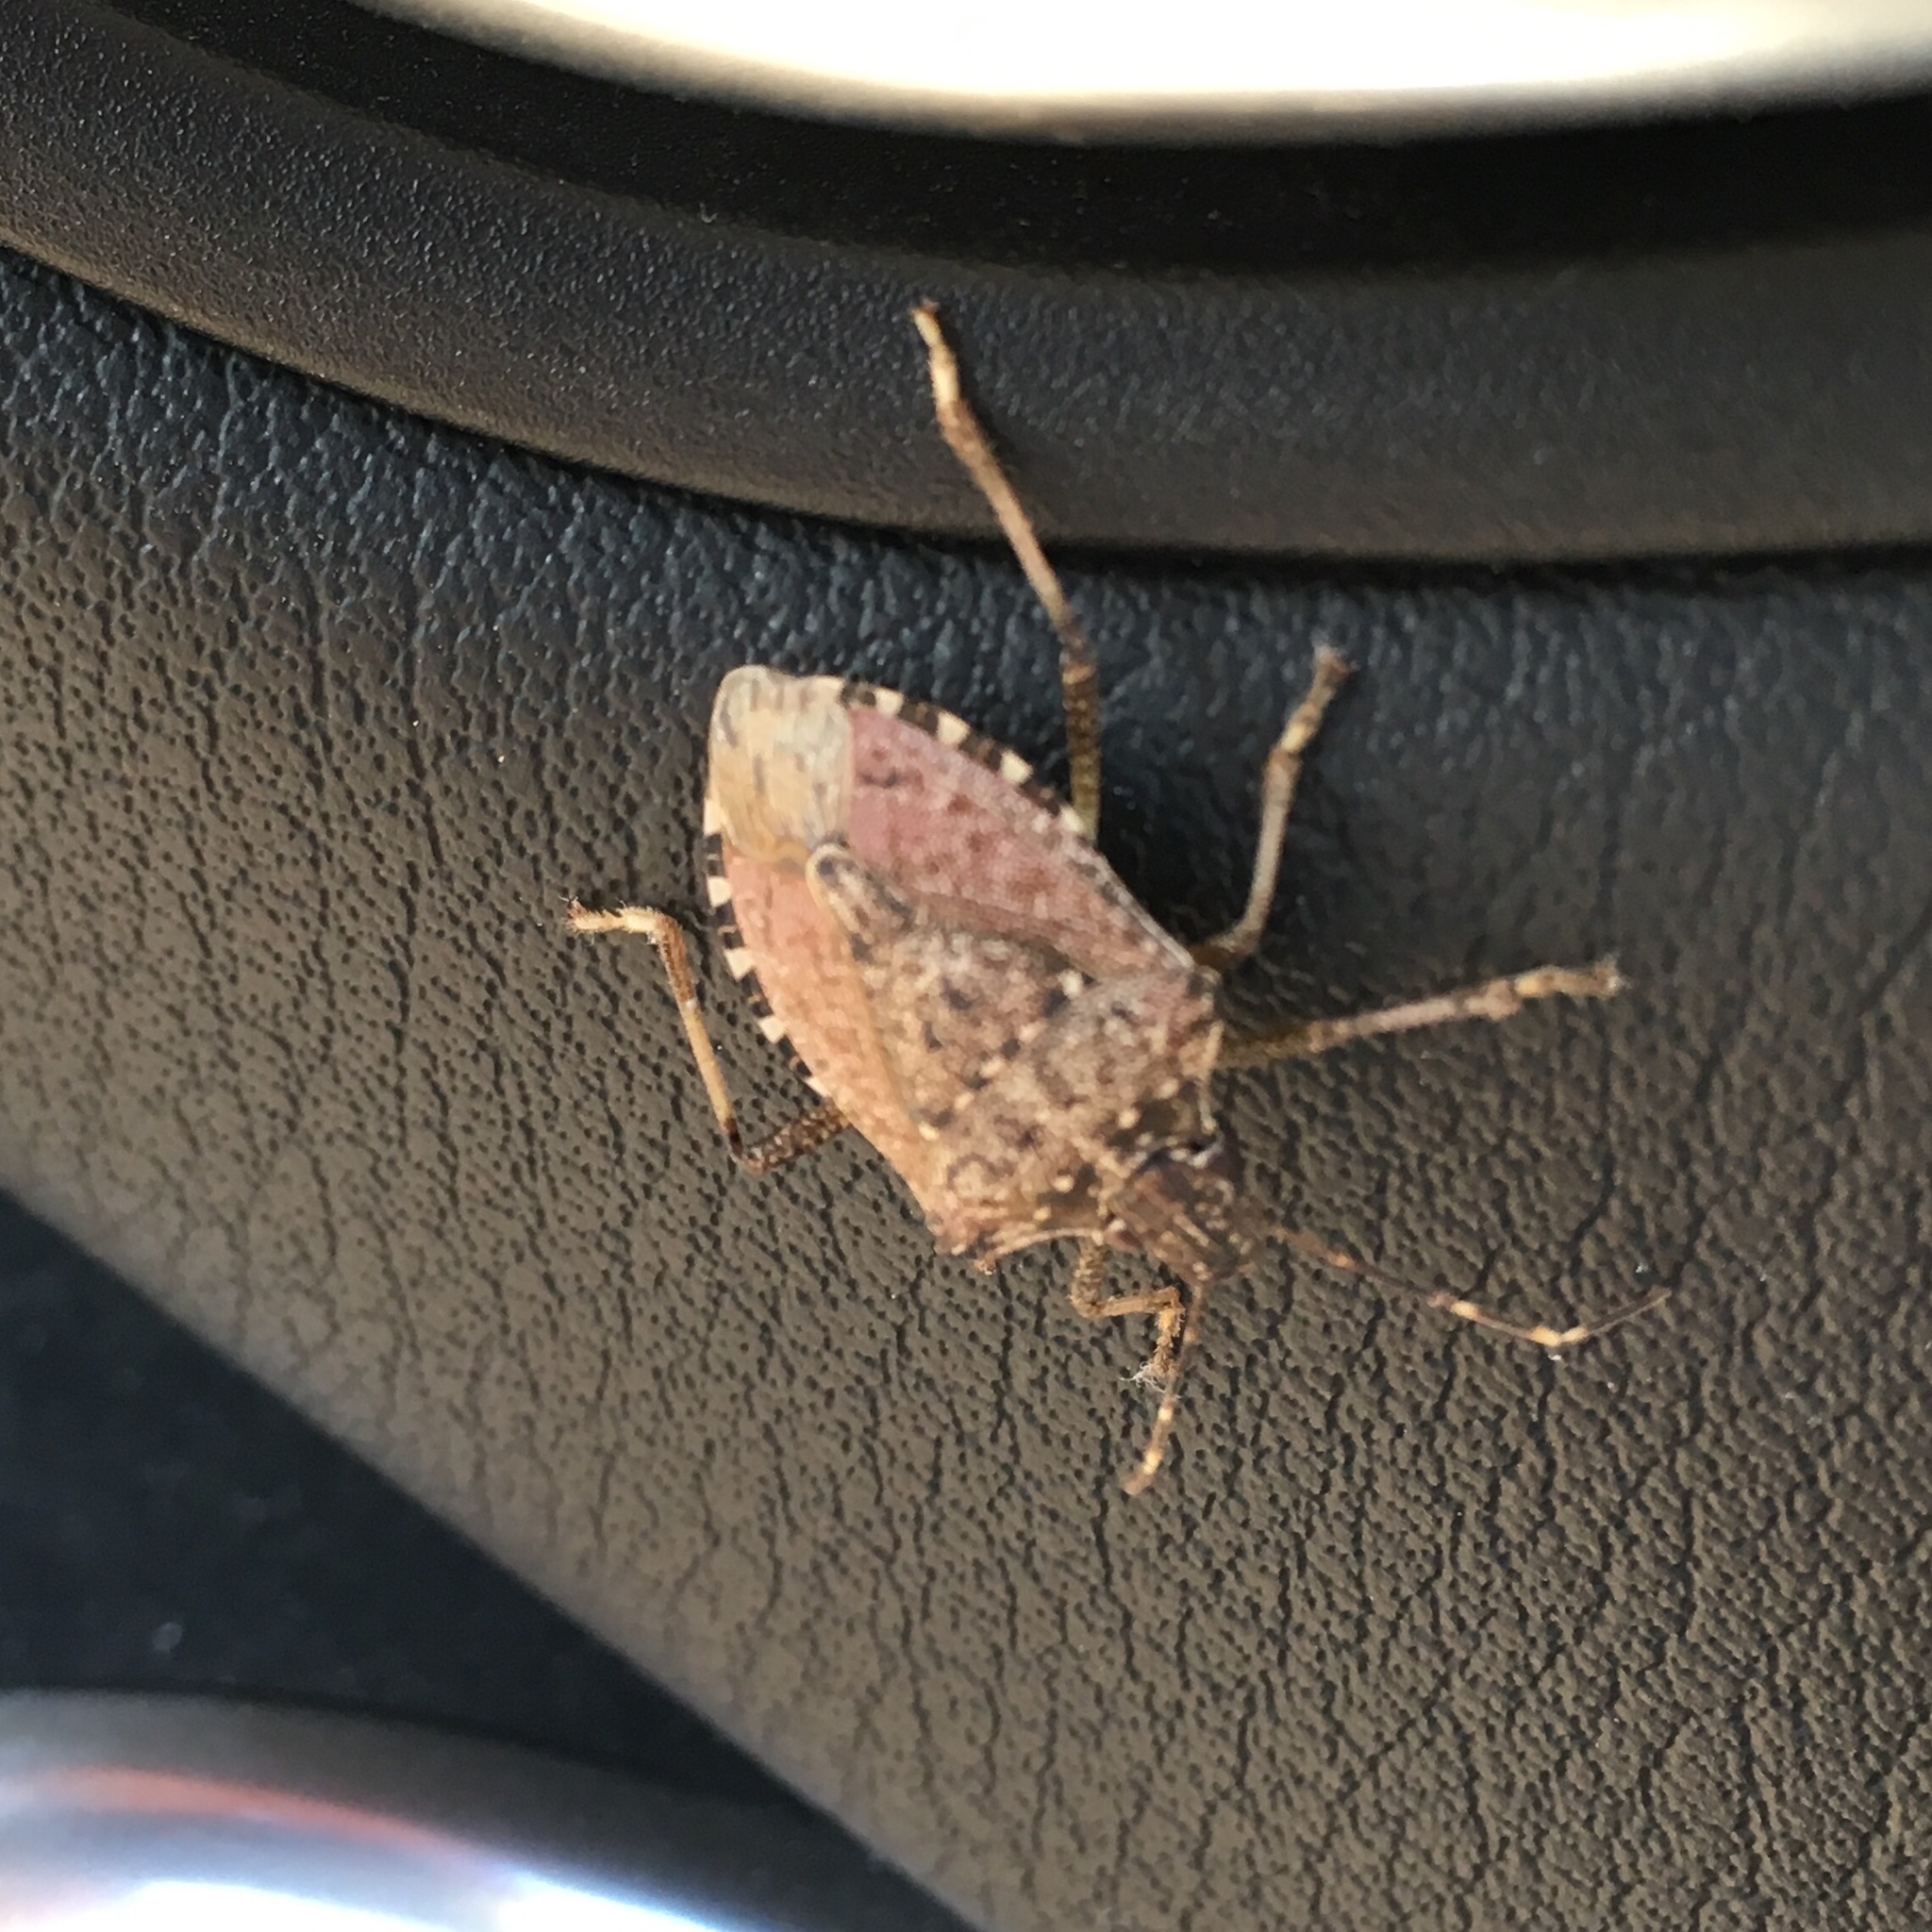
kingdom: Animalia
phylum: Arthropoda
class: Insecta
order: Hemiptera
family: Pentatomidae
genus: Halyomorpha
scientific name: Halyomorpha halys
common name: Brown marmorated stink bug
